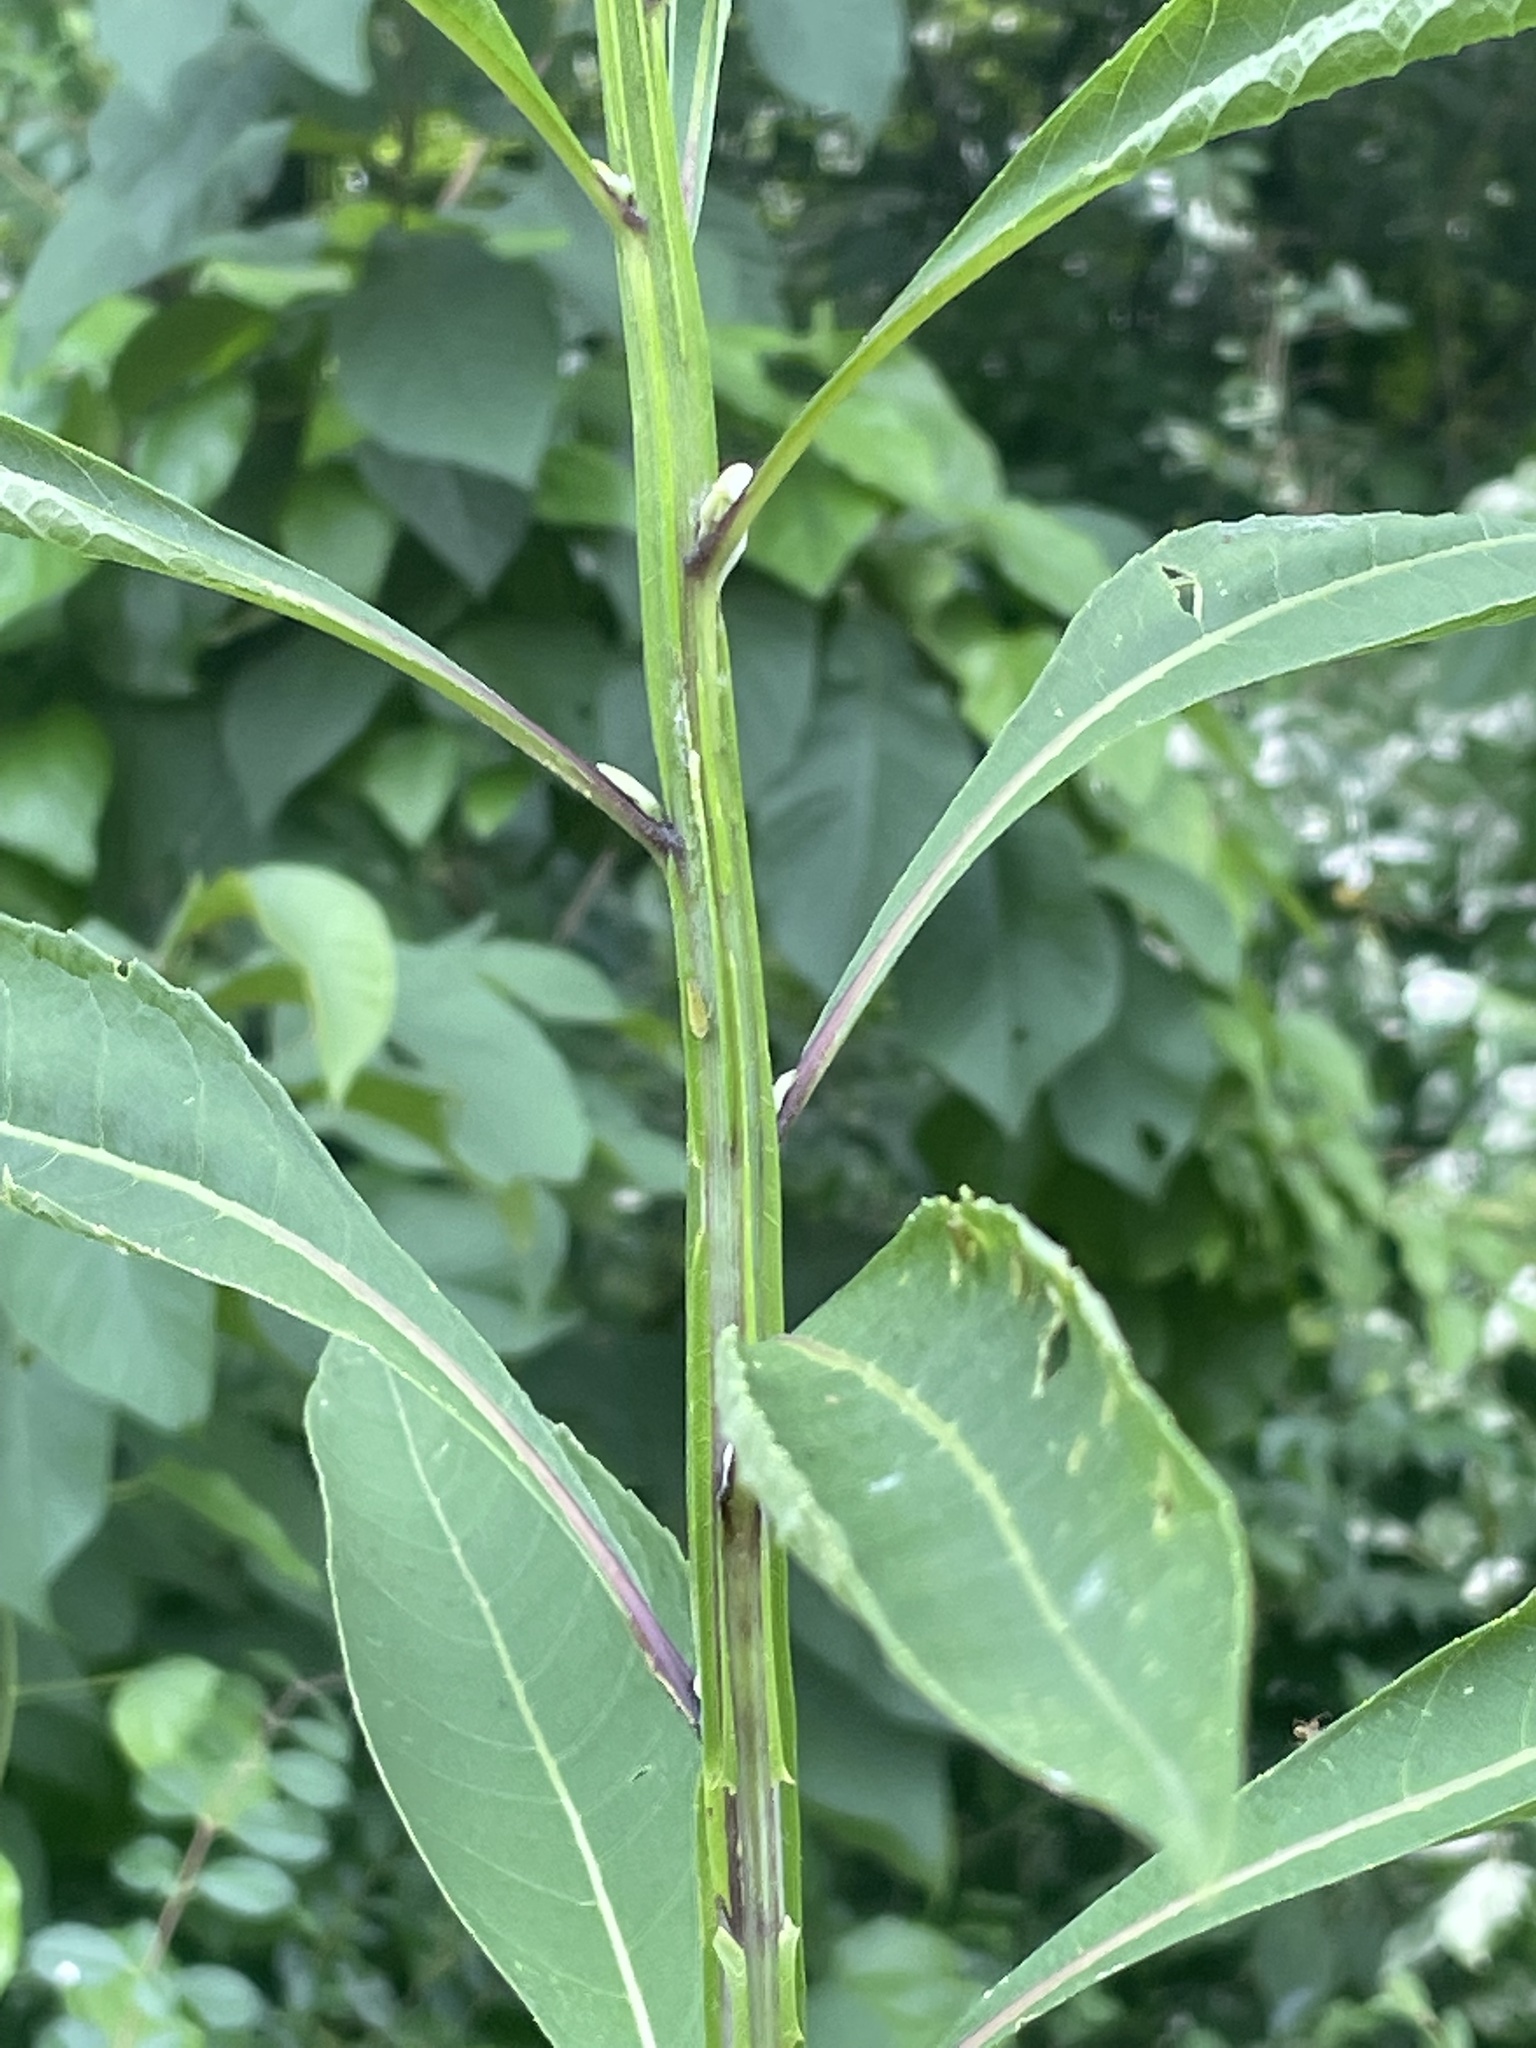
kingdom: Plantae
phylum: Tracheophyta
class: Magnoliopsida
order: Asterales
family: Asteraceae
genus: Verbesina
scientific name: Verbesina alternifolia
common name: Wingstem
